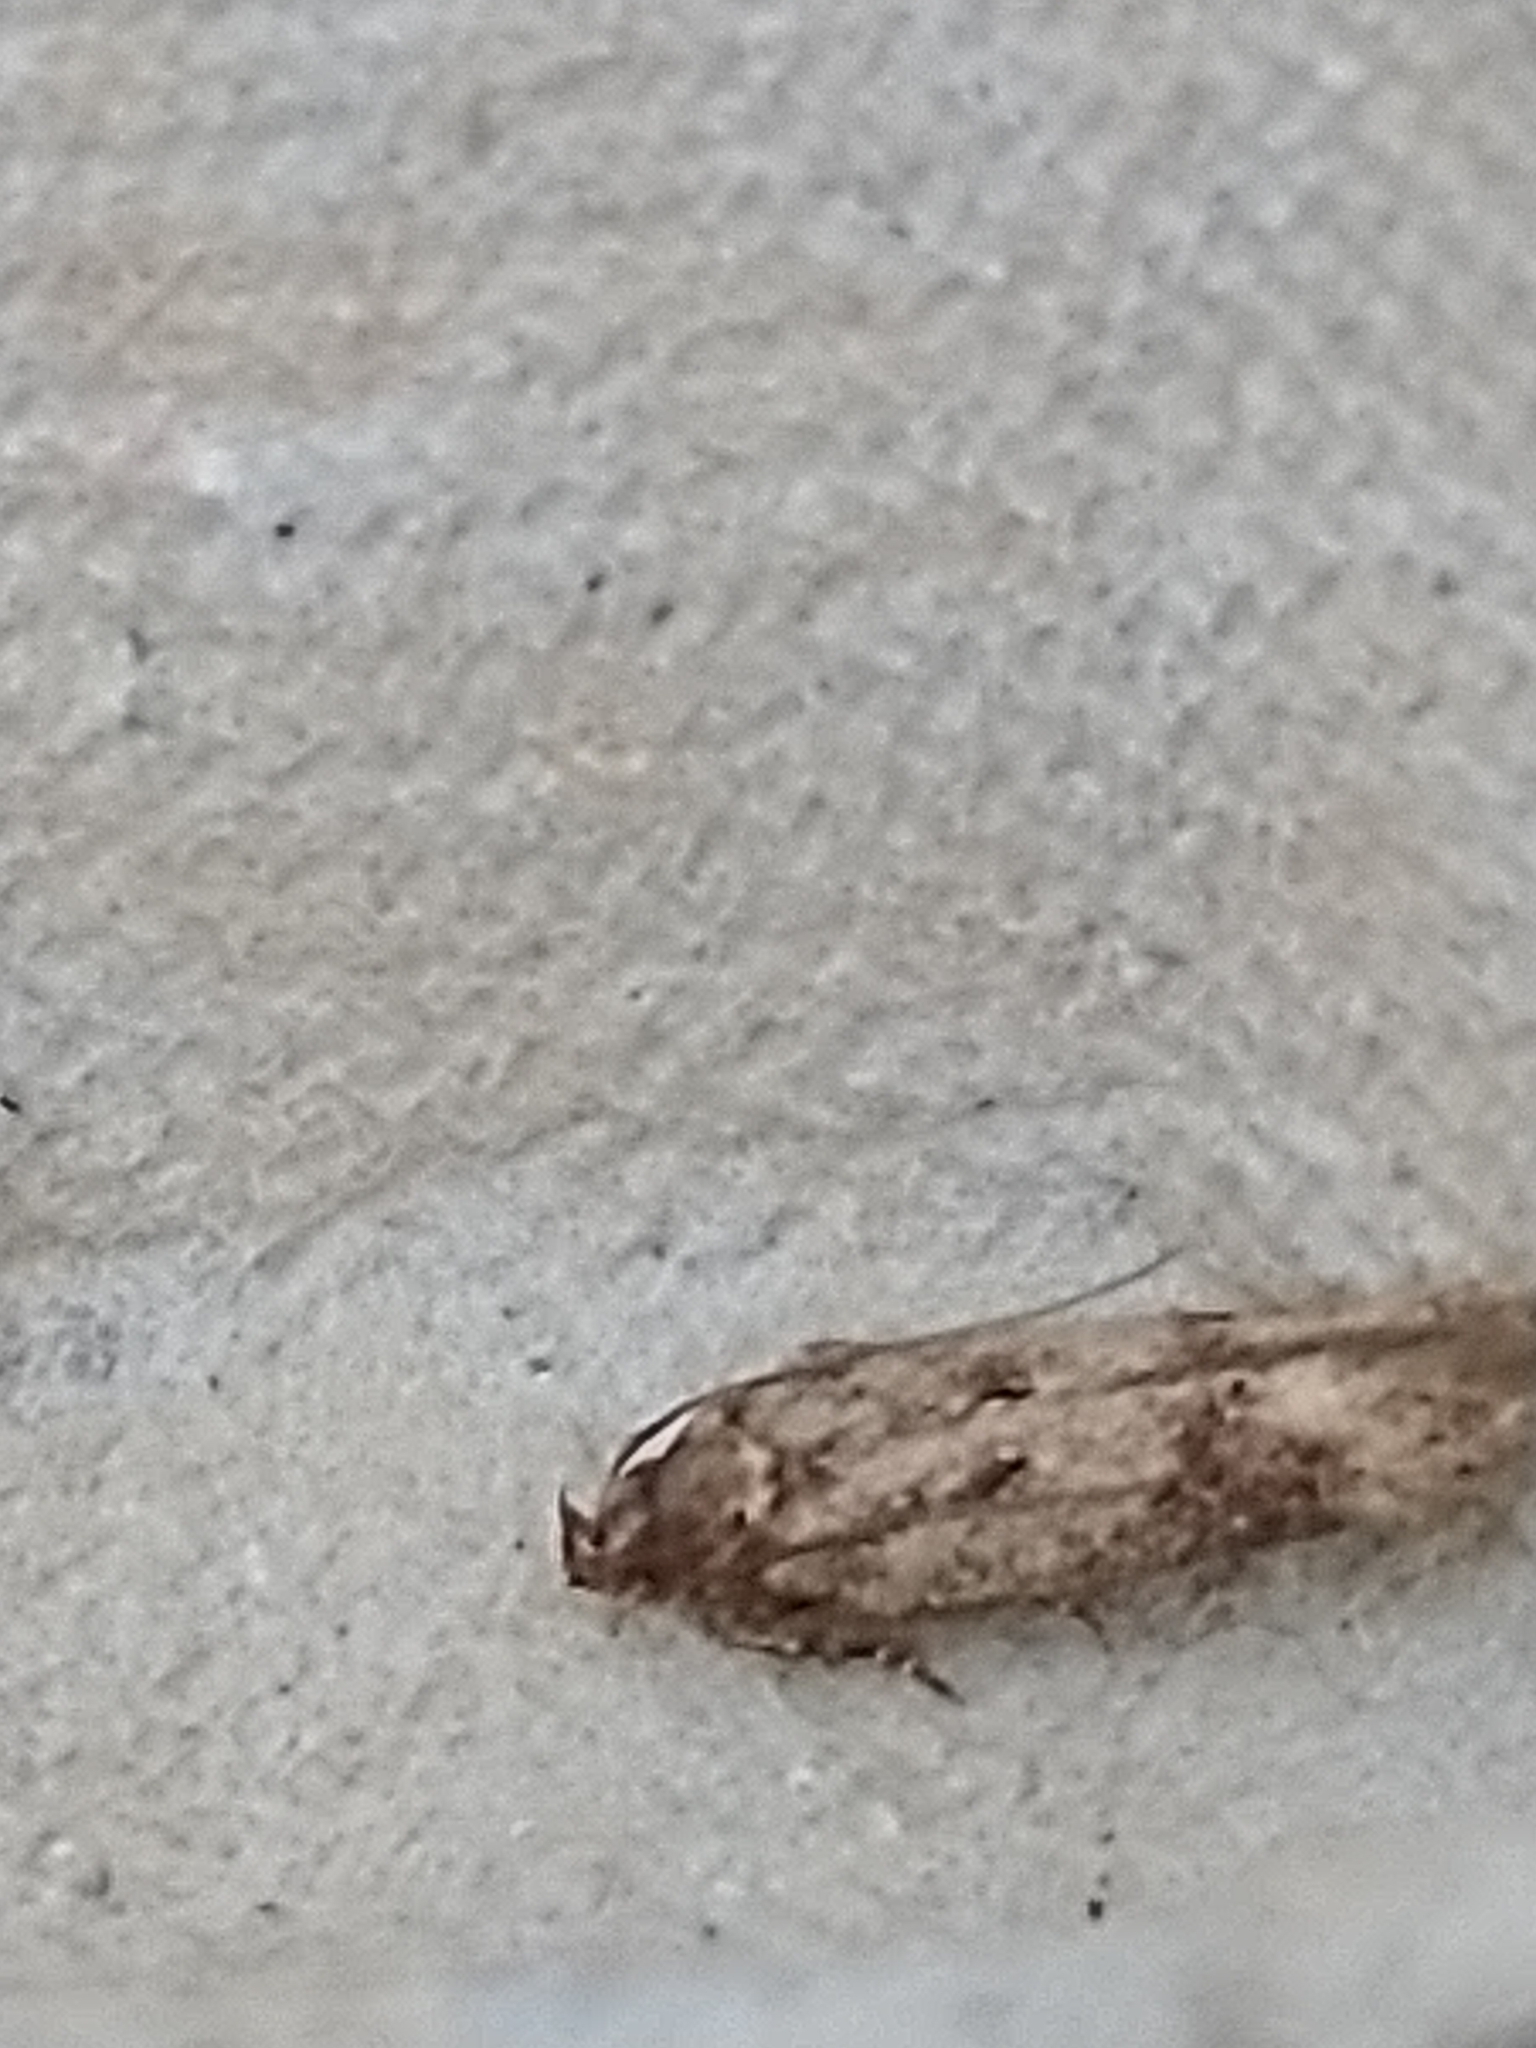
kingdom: Animalia
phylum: Arthropoda
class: Insecta
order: Lepidoptera
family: Oecophoridae
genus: Hofmannophila
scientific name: Hofmannophila pseudospretella
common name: Brown house moth
